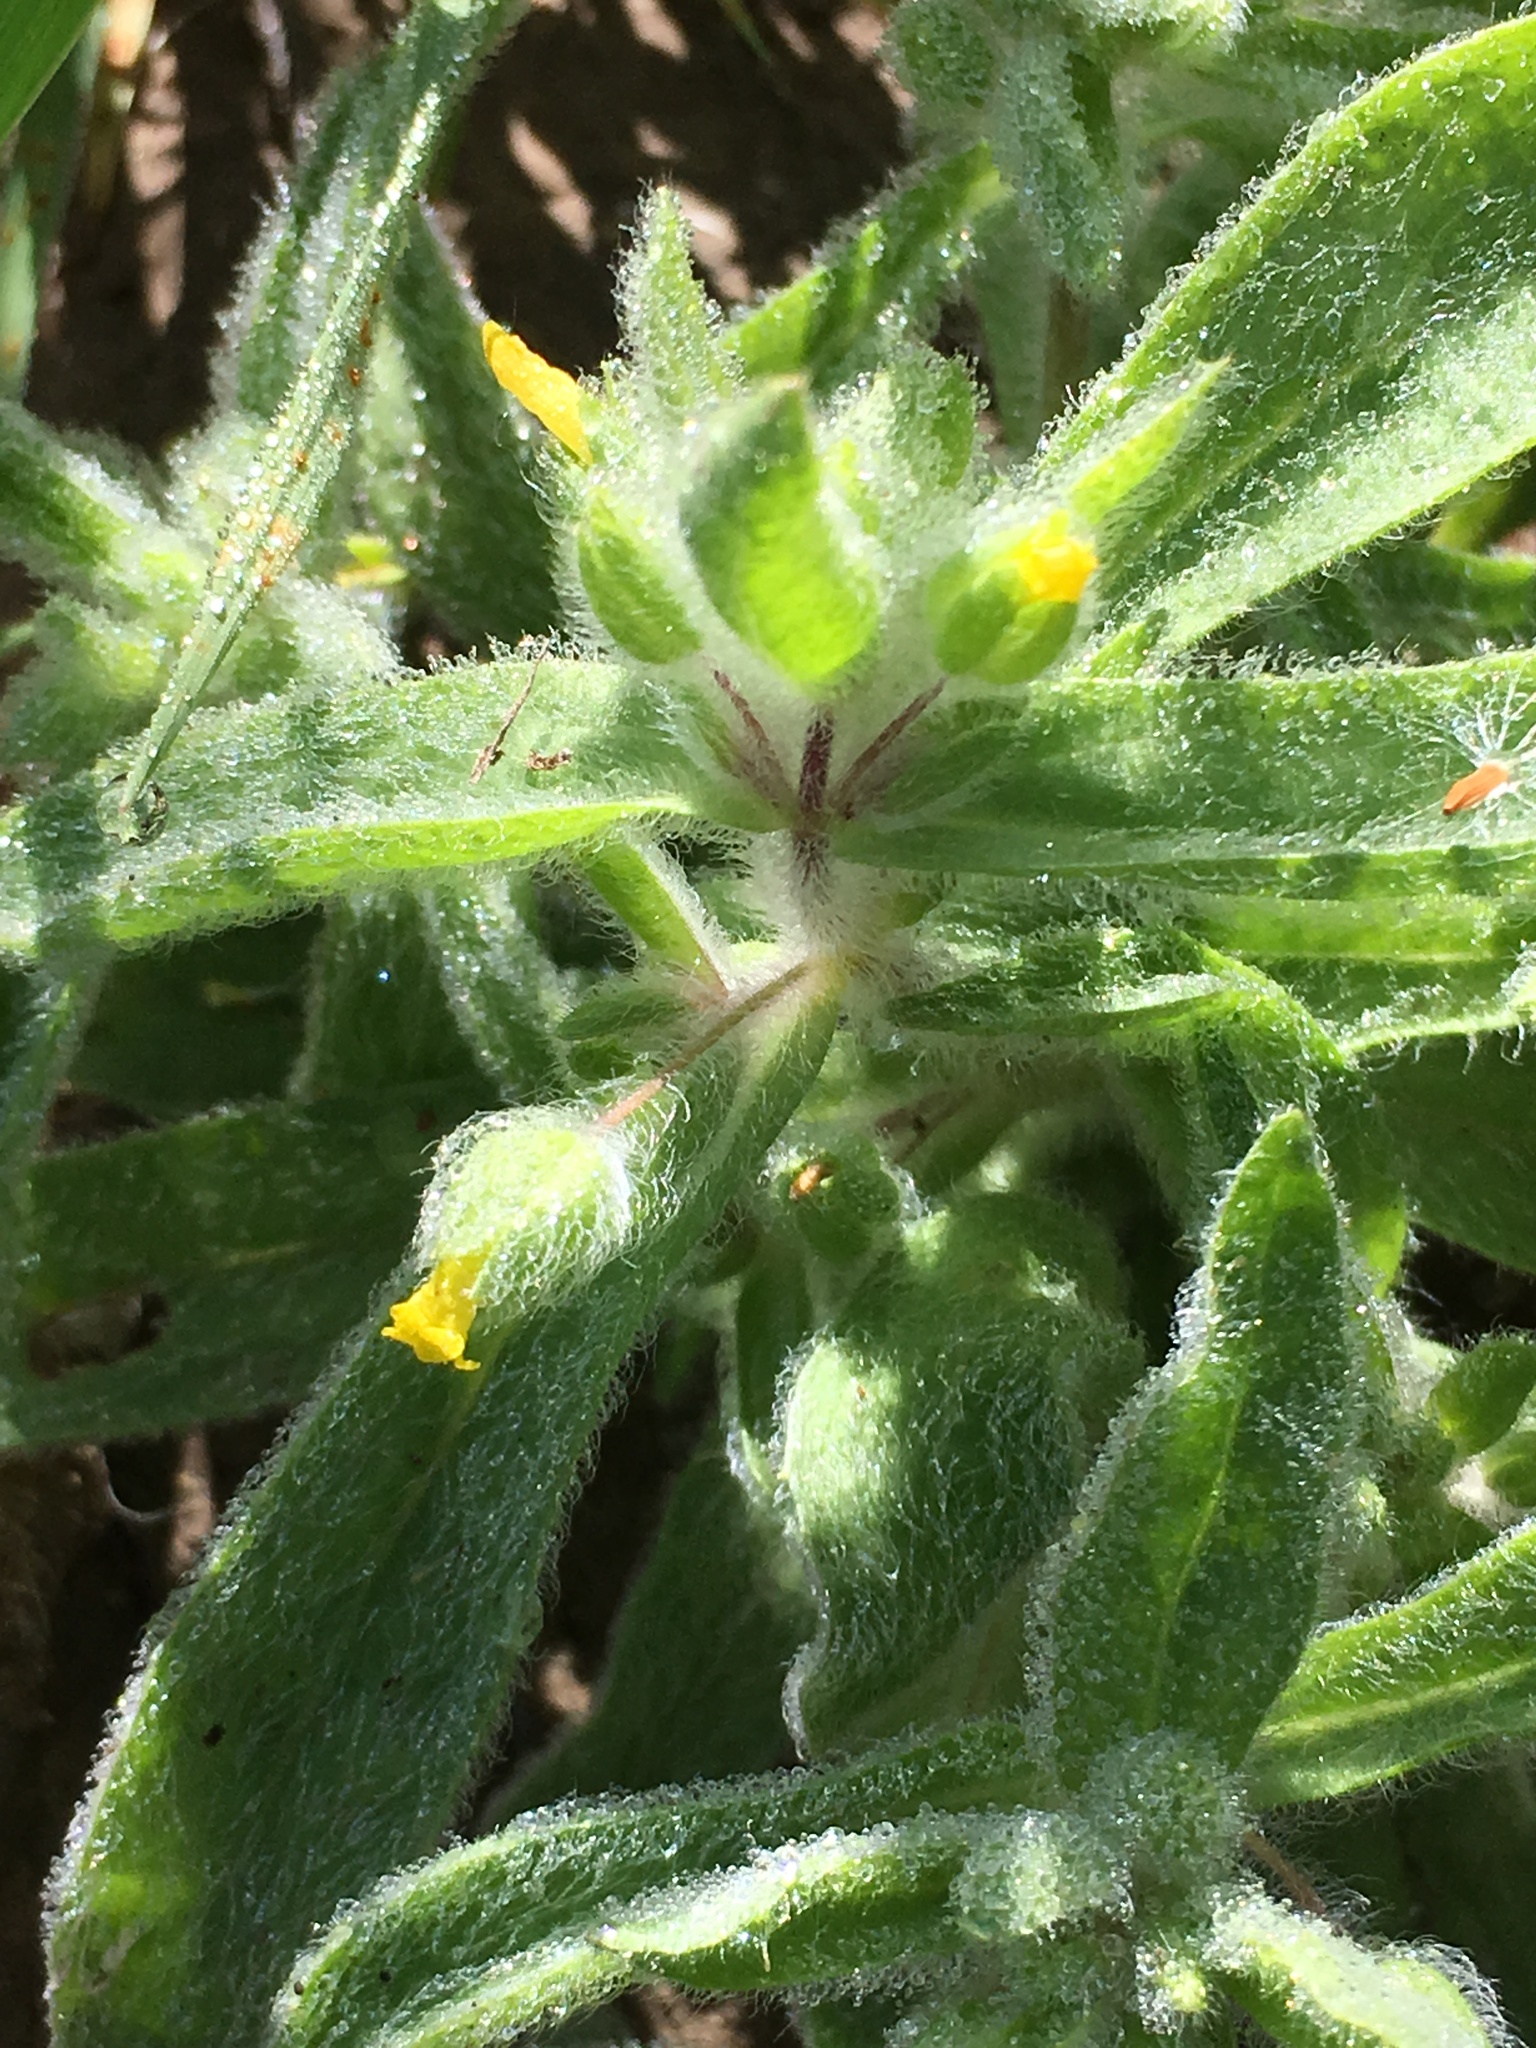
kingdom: Plantae
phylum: Tracheophyta
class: Magnoliopsida
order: Lamiales
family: Phrymaceae
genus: Mimetanthe
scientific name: Mimetanthe pilosa
